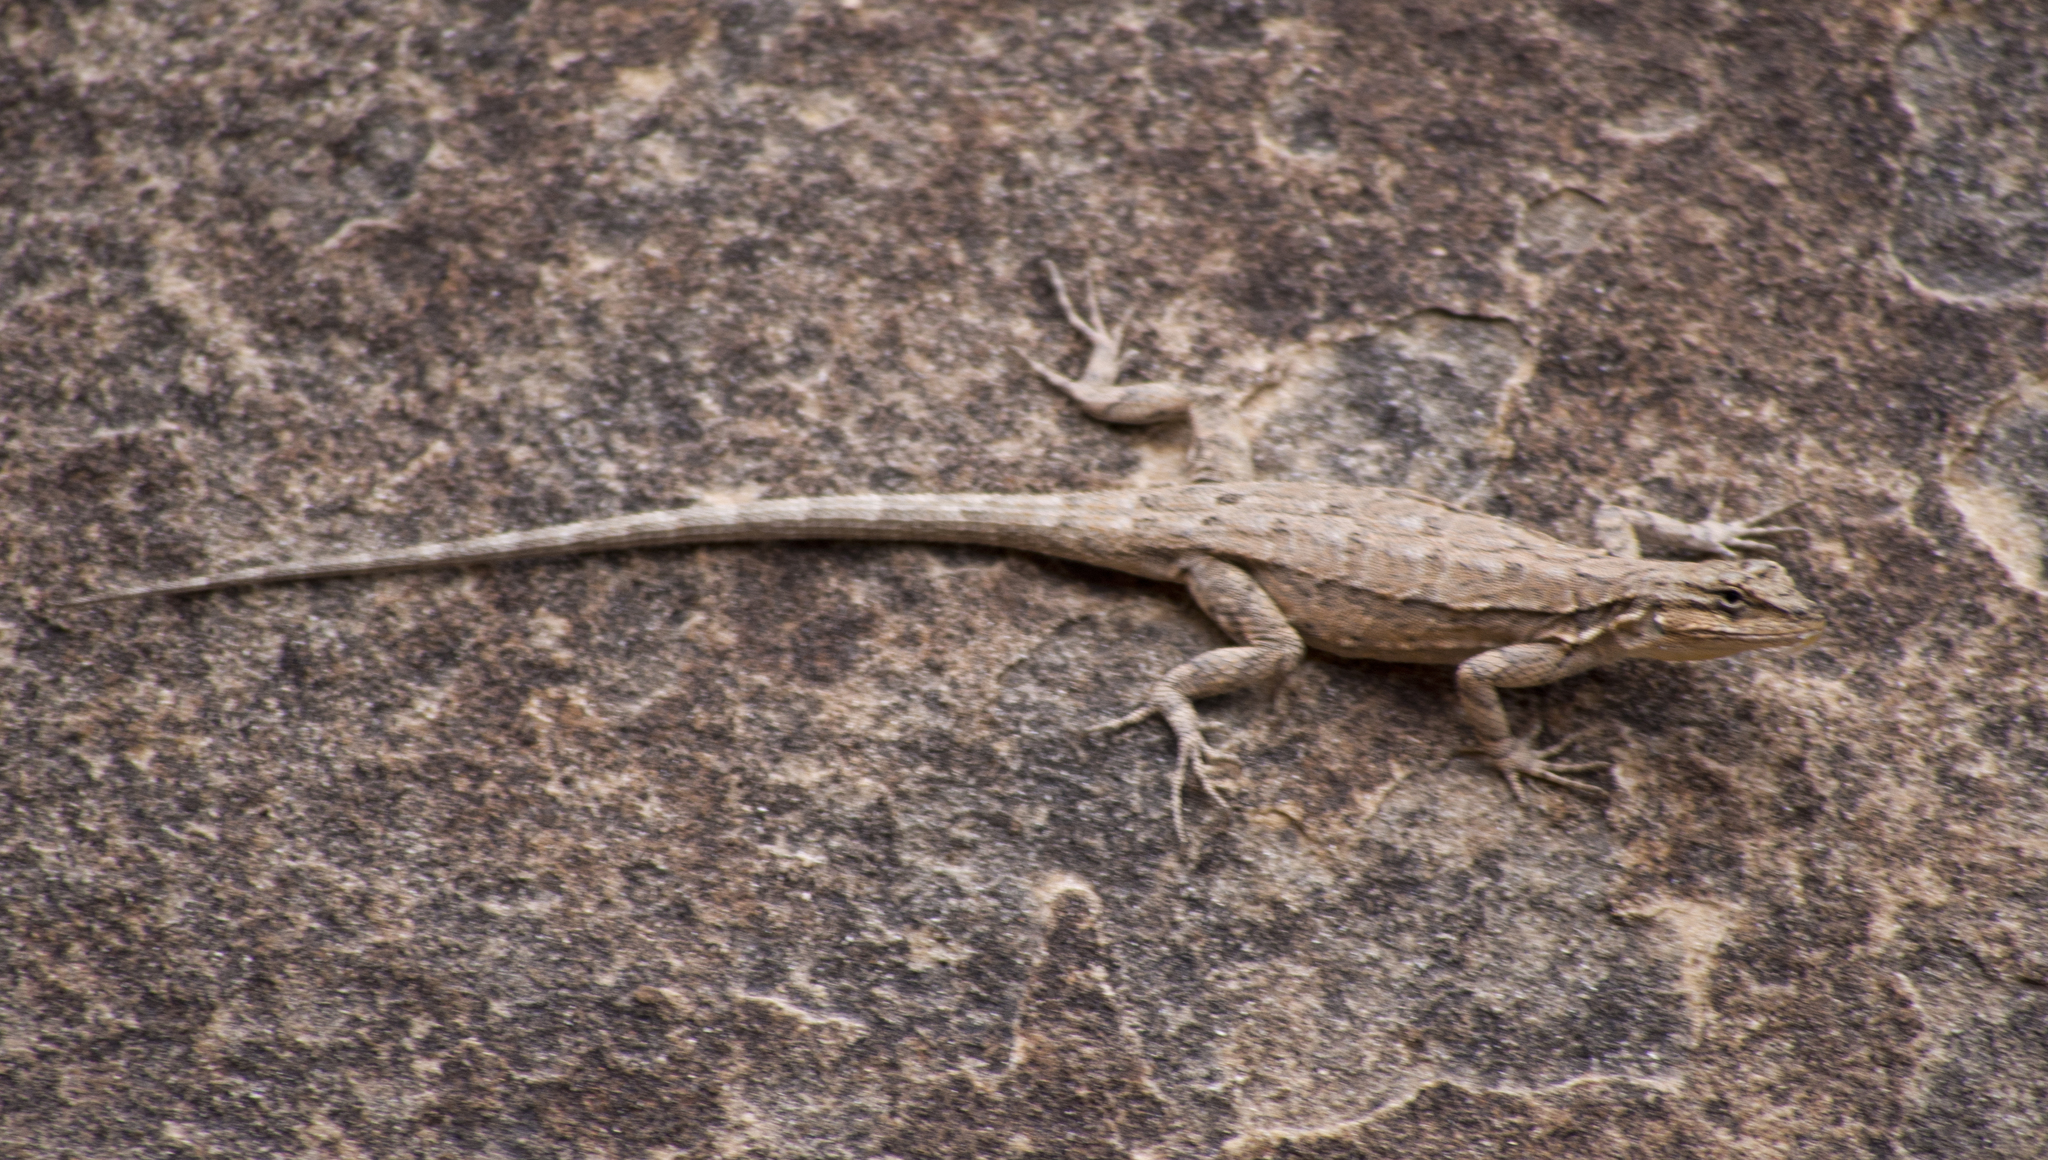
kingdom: Animalia
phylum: Chordata
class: Squamata
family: Phrynosomatidae
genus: Urosaurus
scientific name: Urosaurus ornatus
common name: Ornate tree lizard
